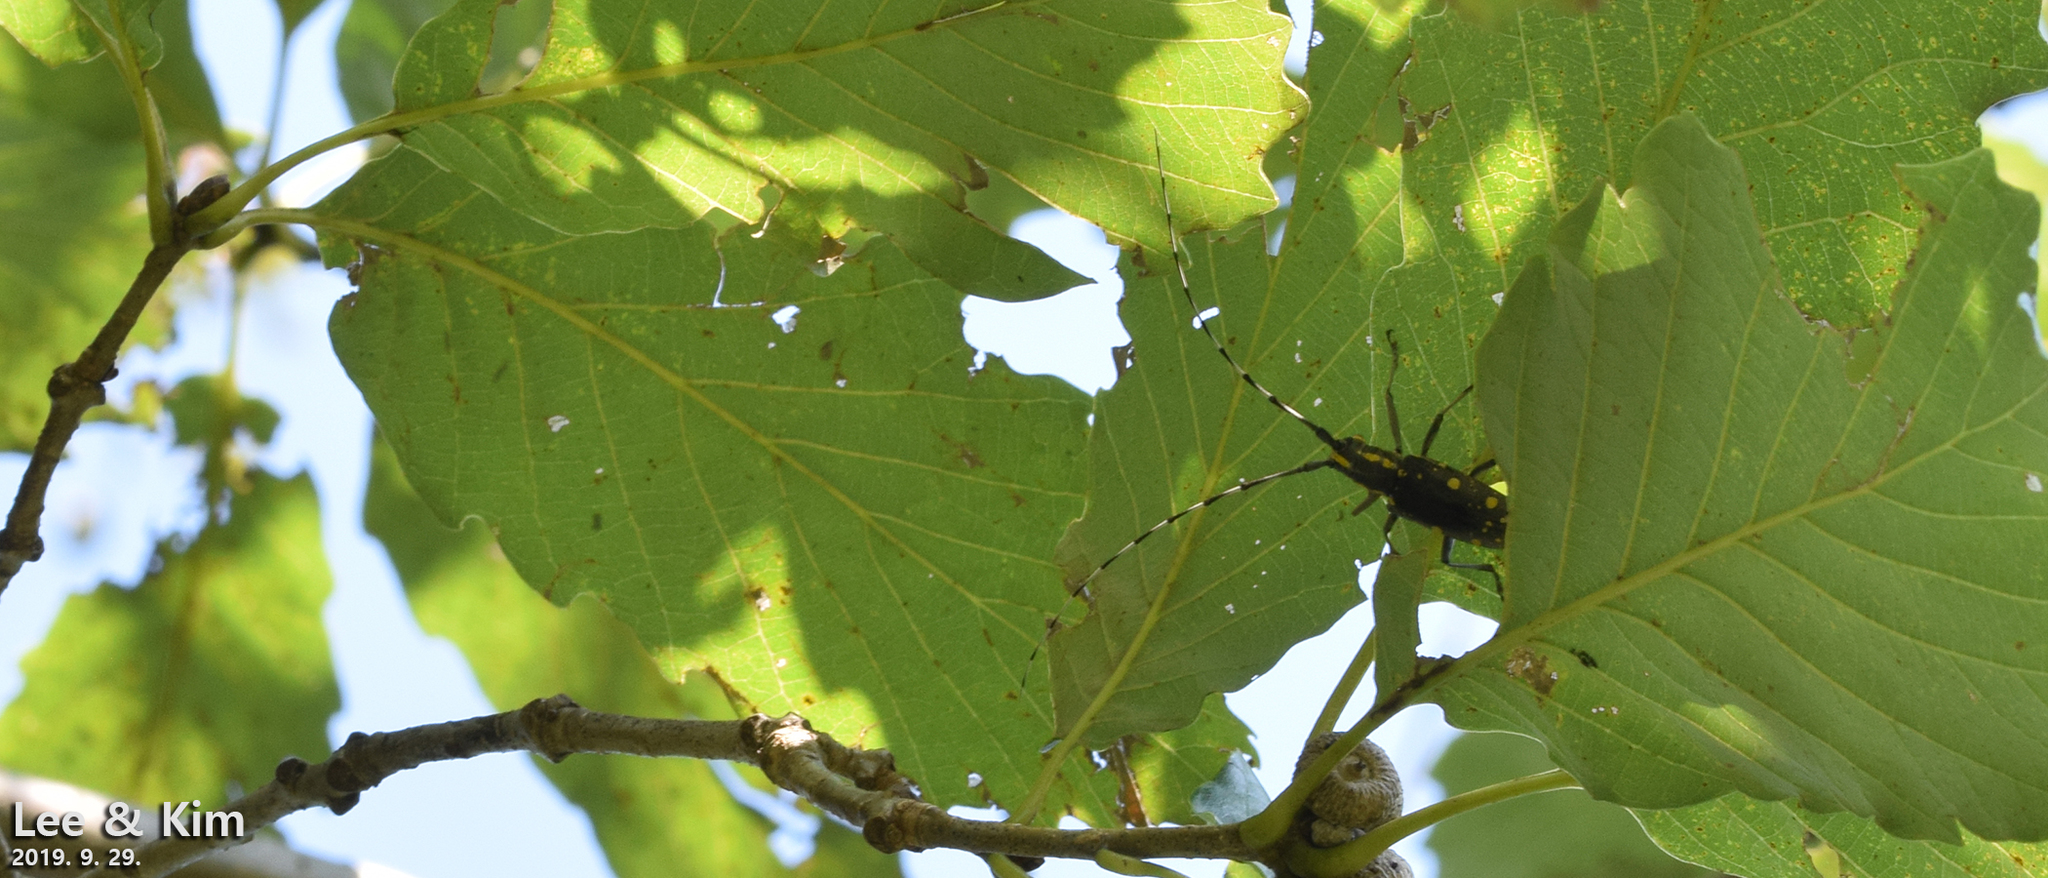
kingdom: Animalia
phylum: Arthropoda
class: Insecta
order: Coleoptera
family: Cerambycidae
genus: Psacothea
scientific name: Psacothea hilaris
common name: Yellow-spotted longicorn beetle
